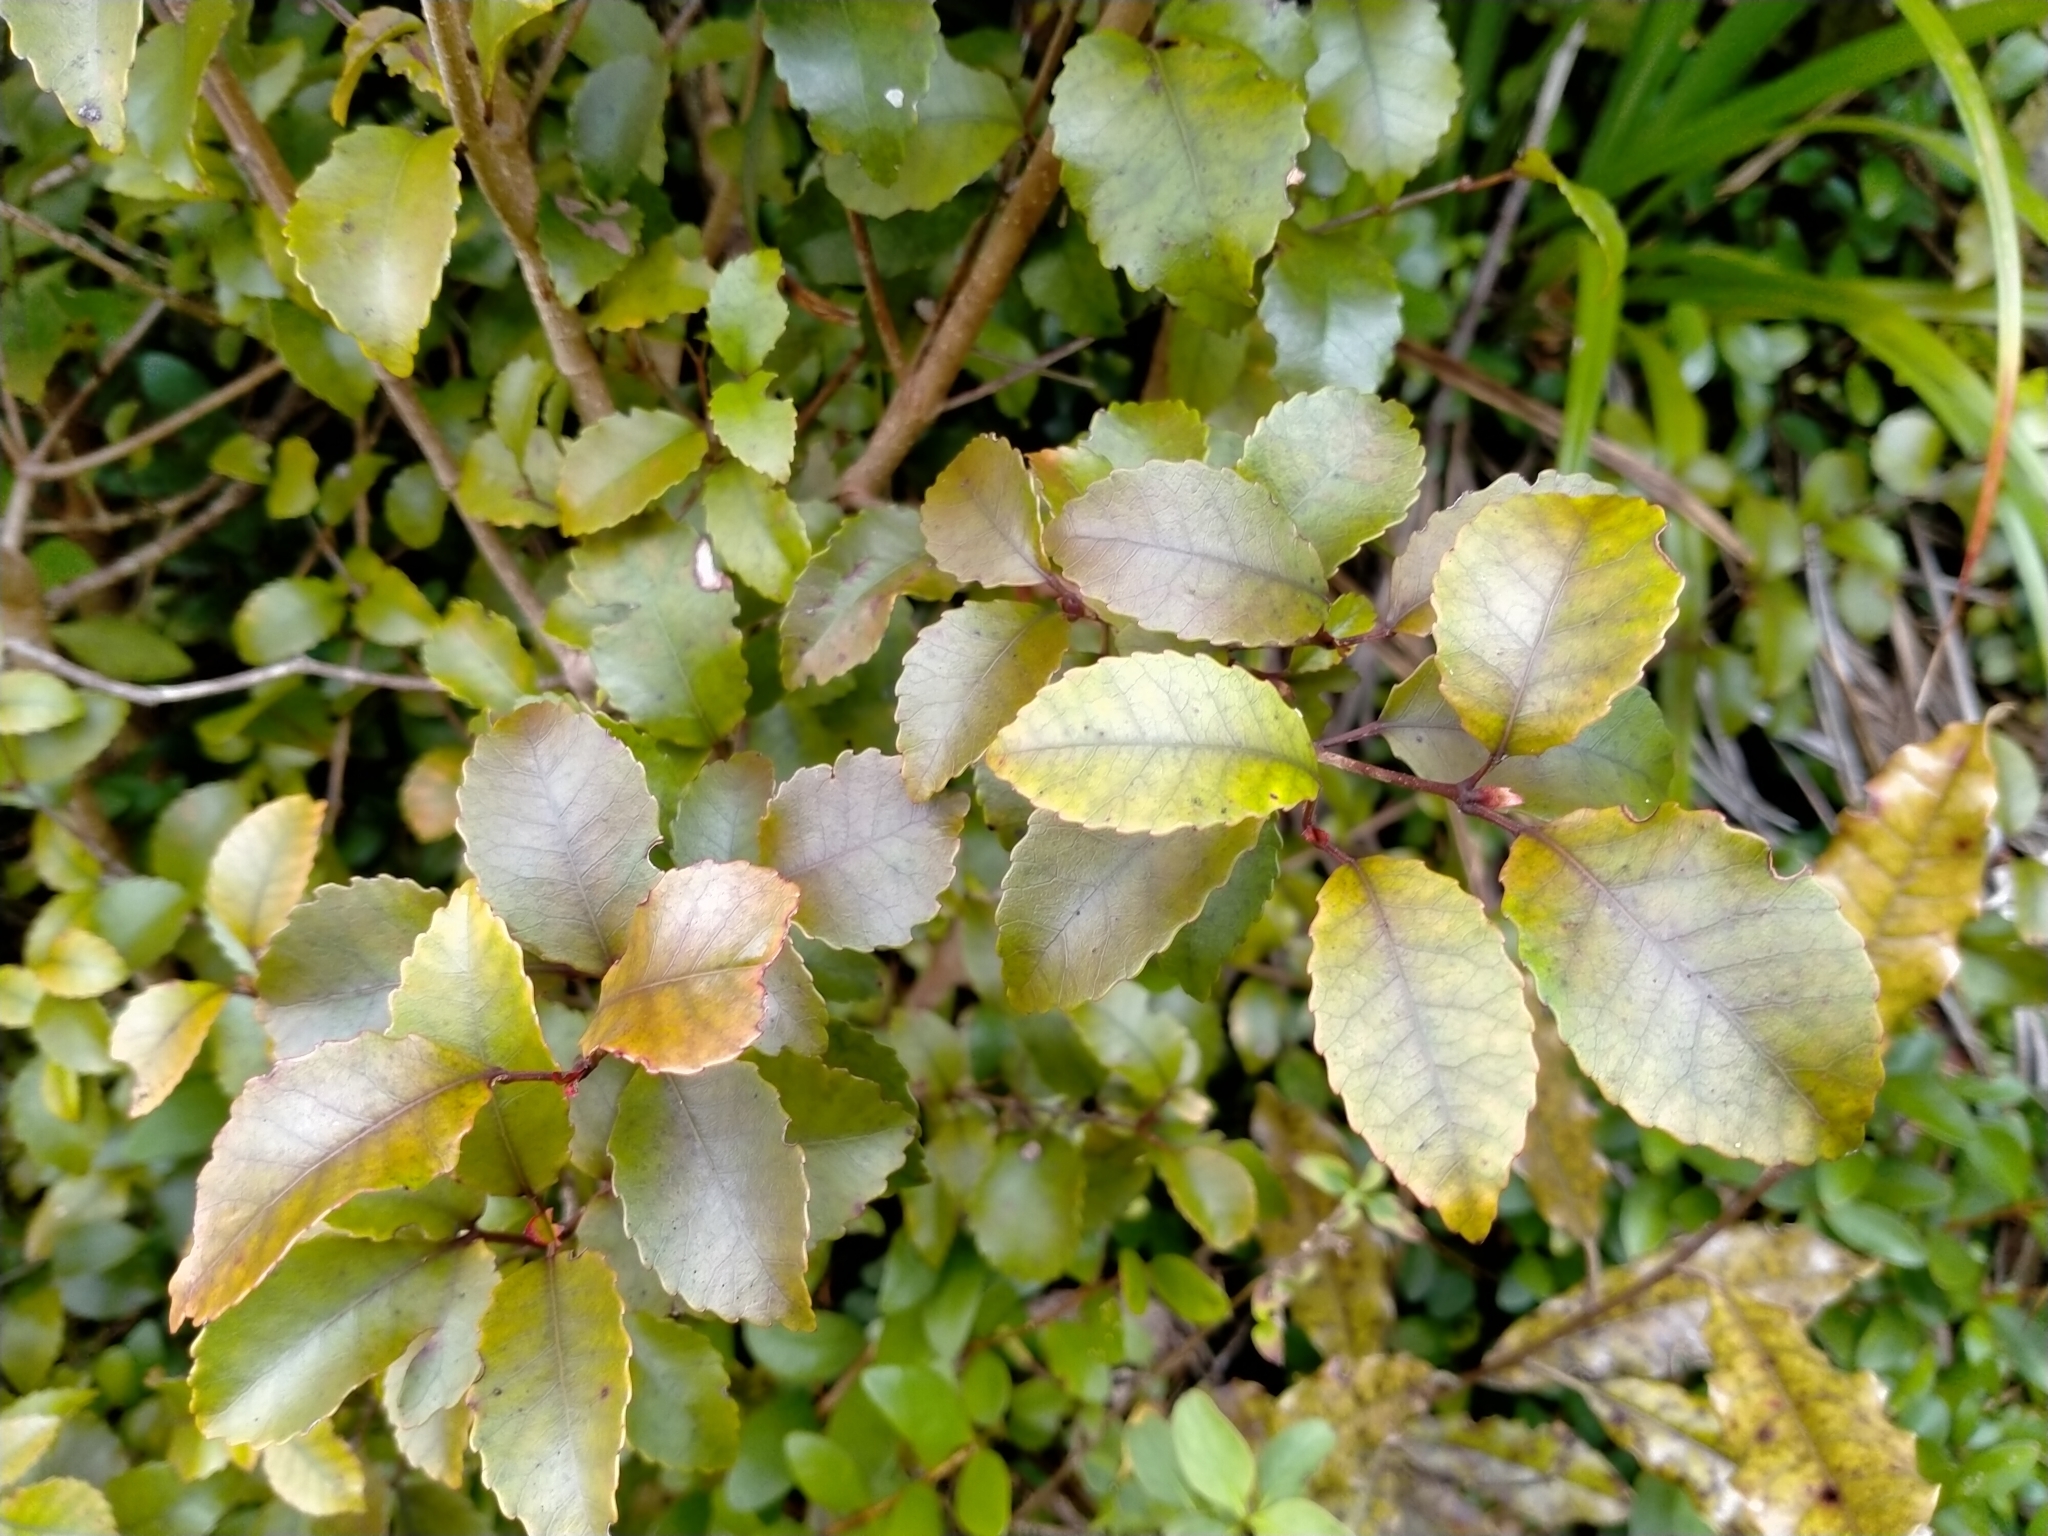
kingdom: Plantae
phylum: Tracheophyta
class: Magnoliopsida
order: Oxalidales
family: Cunoniaceae
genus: Pterophylla
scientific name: Pterophylla racemosa
